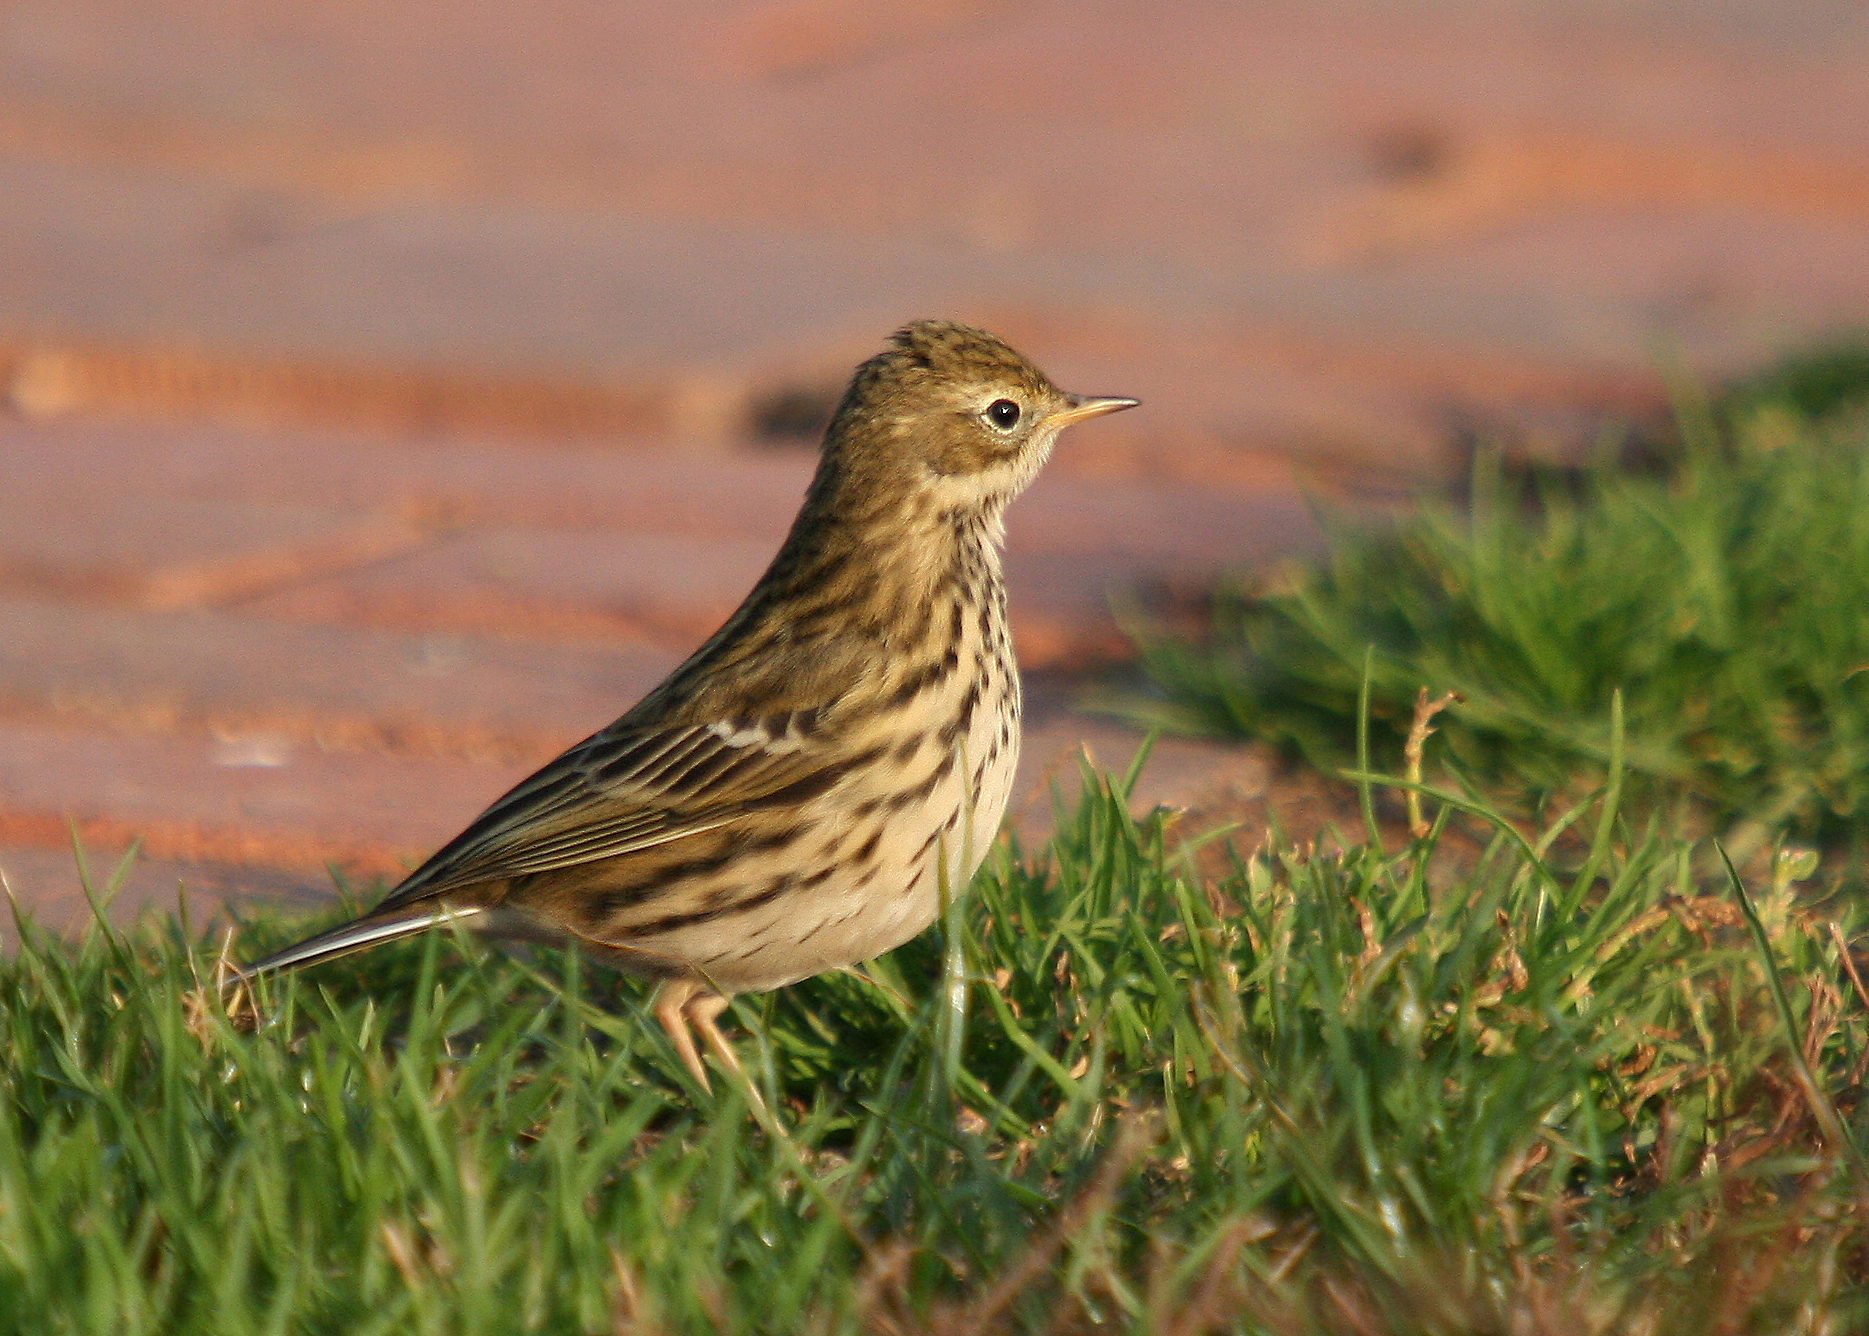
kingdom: Animalia
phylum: Chordata
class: Aves
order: Passeriformes
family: Motacillidae
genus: Anthus
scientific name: Anthus pratensis
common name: Meadow pipit
